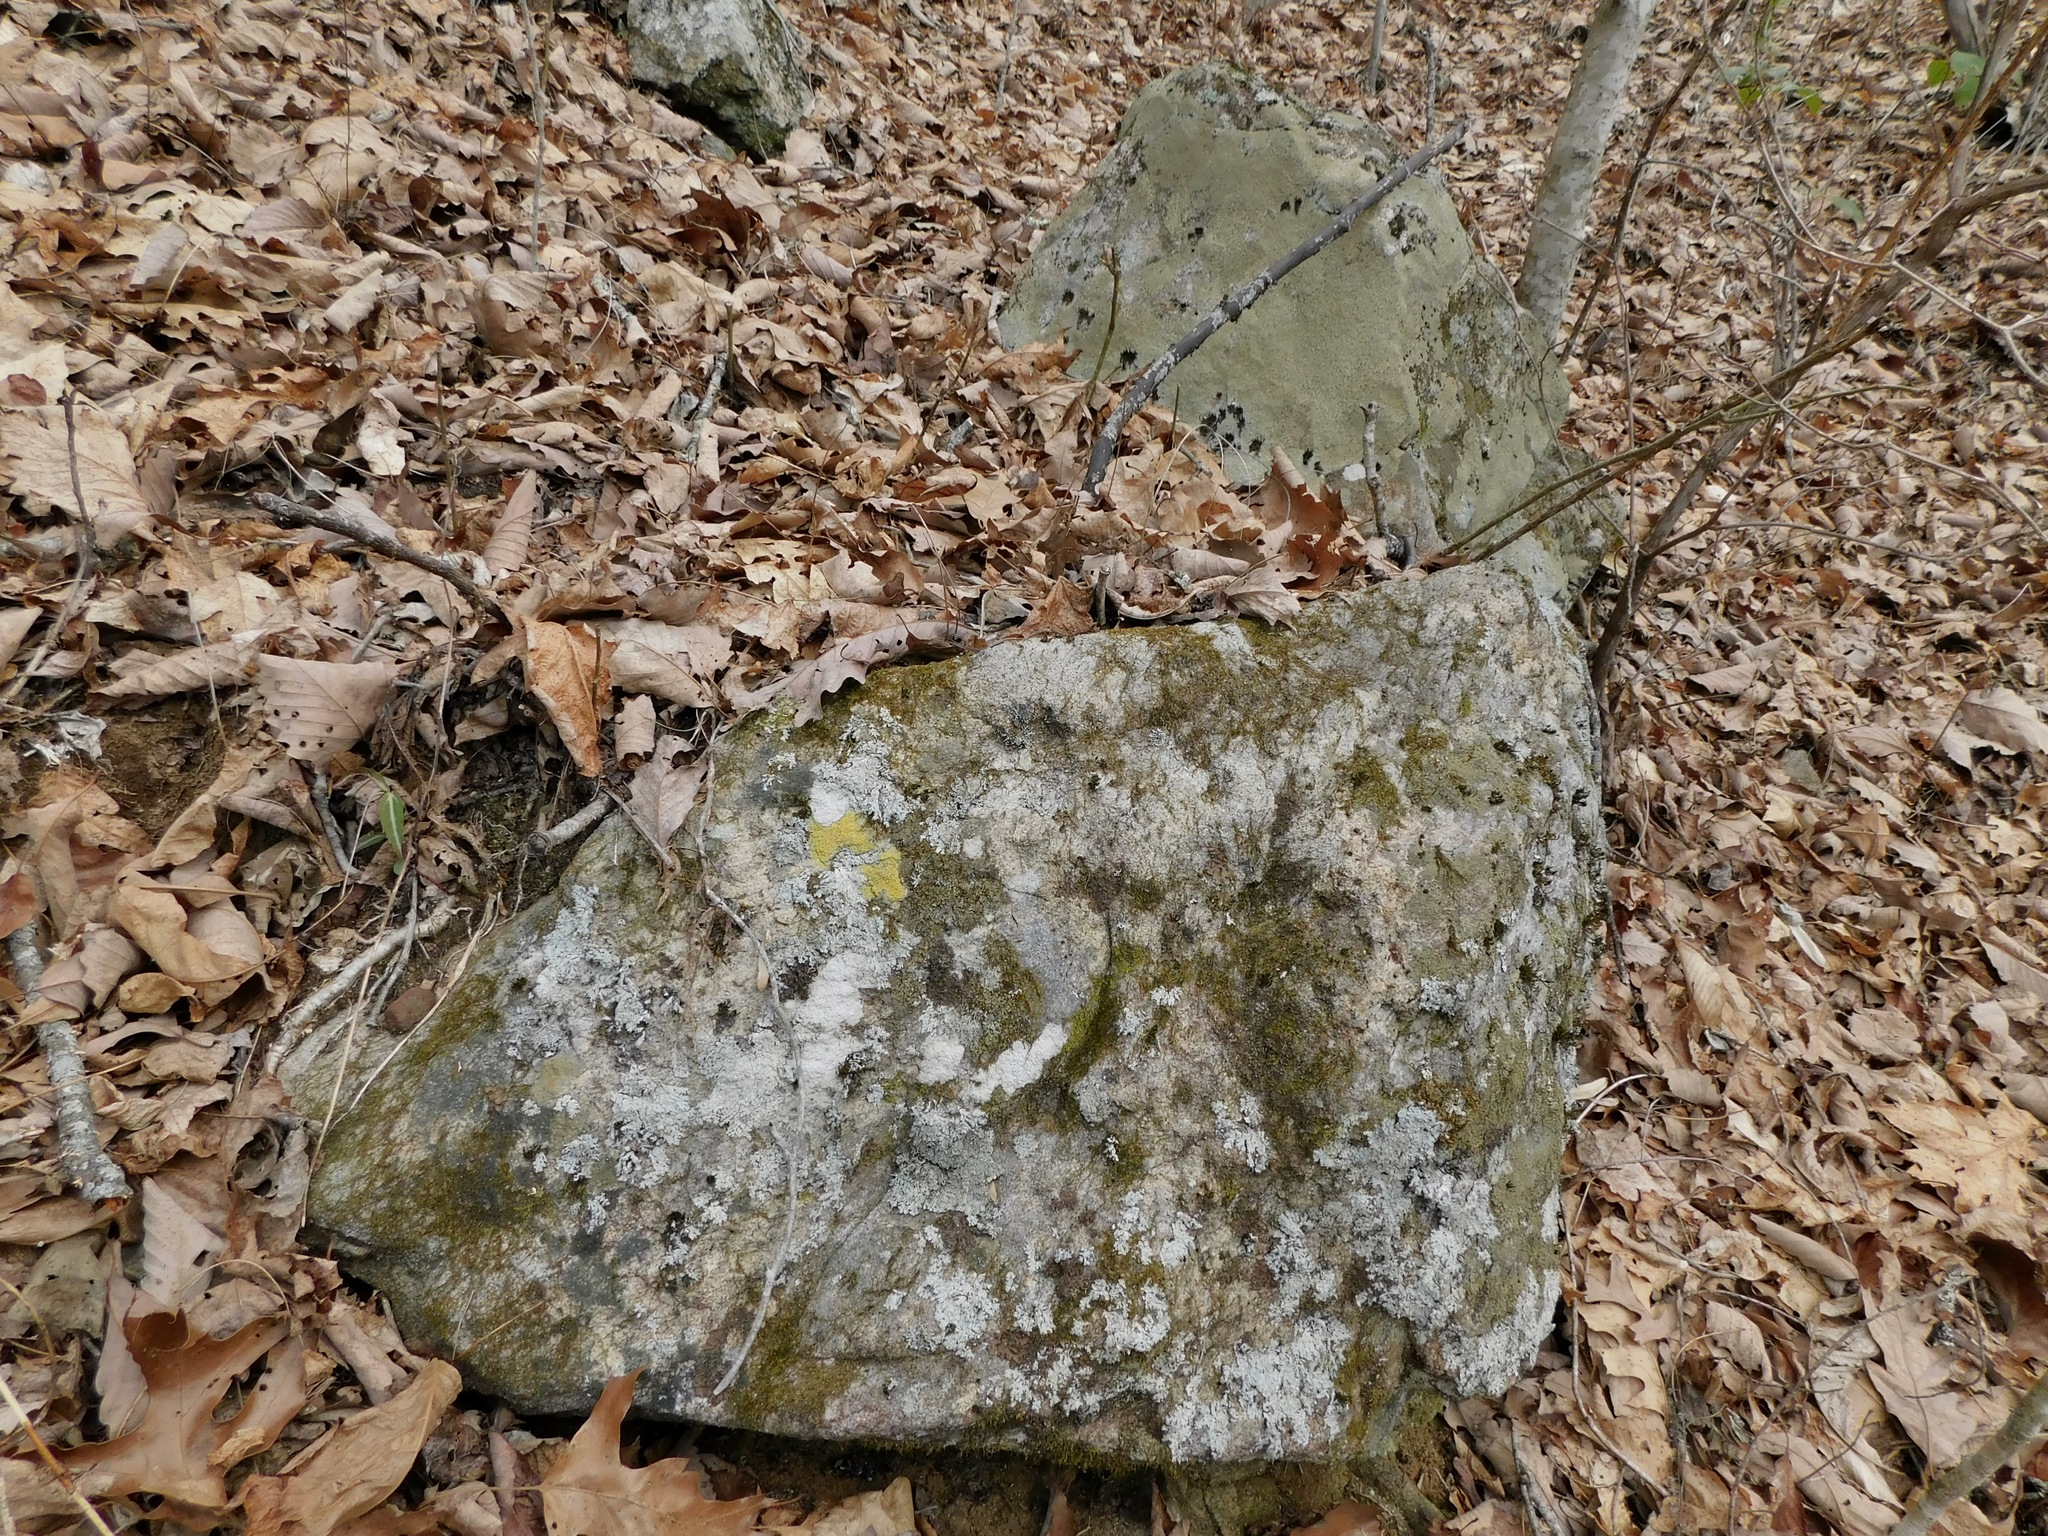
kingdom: Fungi
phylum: Ascomycota
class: Lecanoromycetes
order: Peltigerales
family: Vahliellaceae
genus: Vahliella
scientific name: Vahliella leucophaea
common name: Rock shingle lichen
